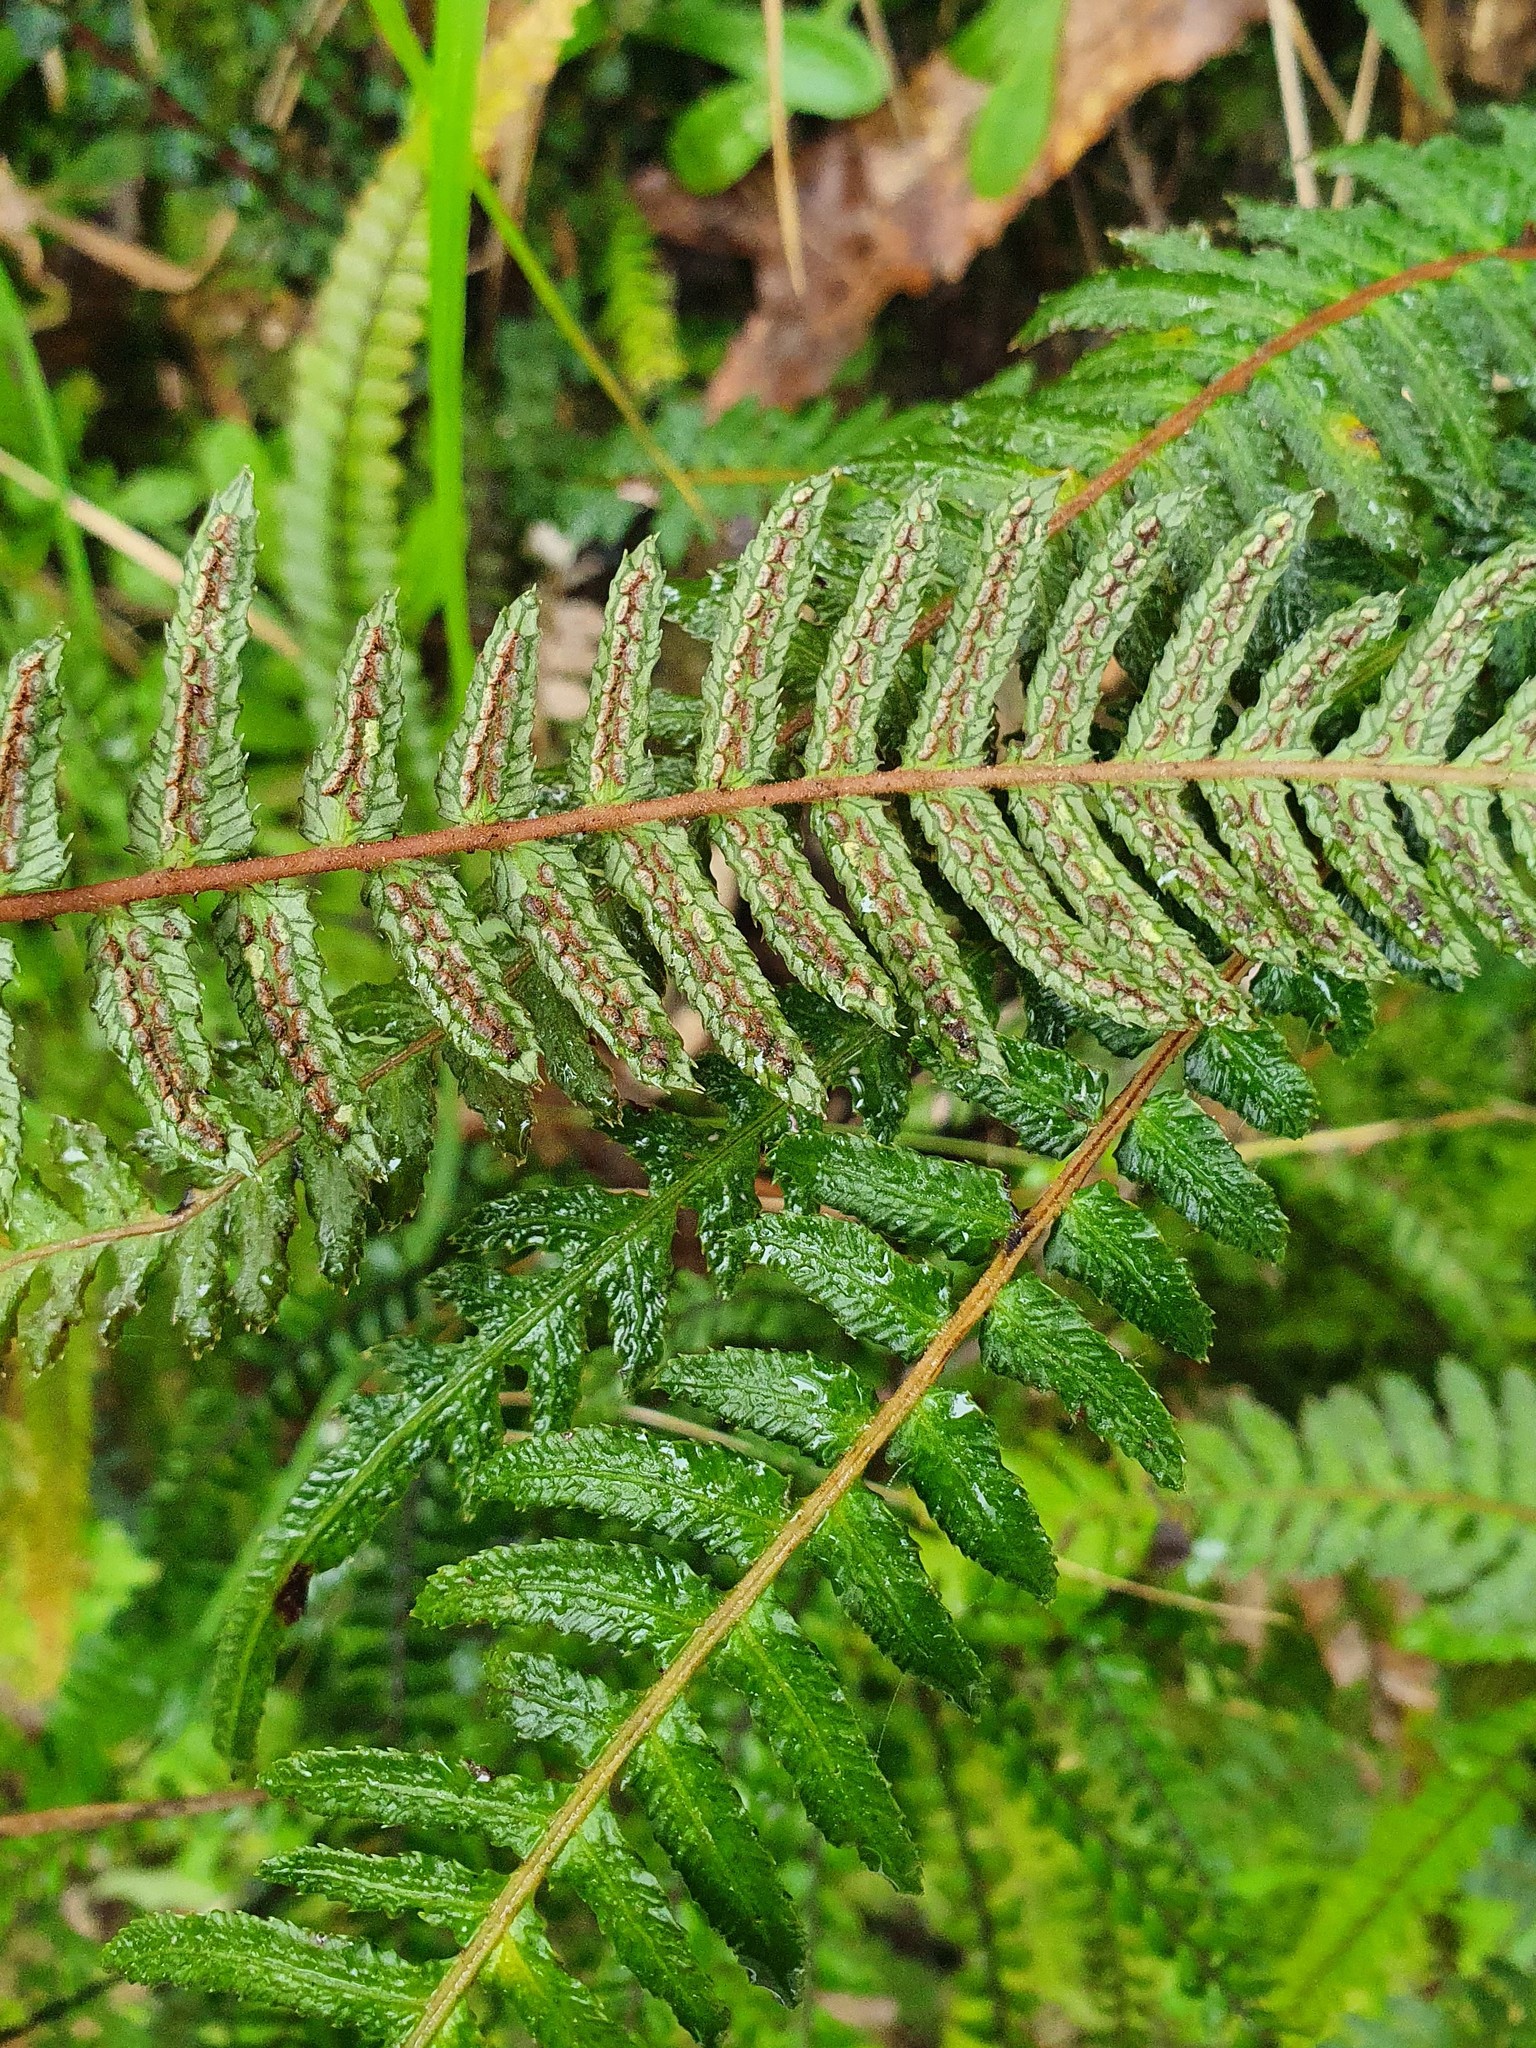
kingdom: Plantae
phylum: Tracheophyta
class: Polypodiopsida
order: Polypodiales
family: Blechnaceae
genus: Doodia
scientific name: Doodia australis
